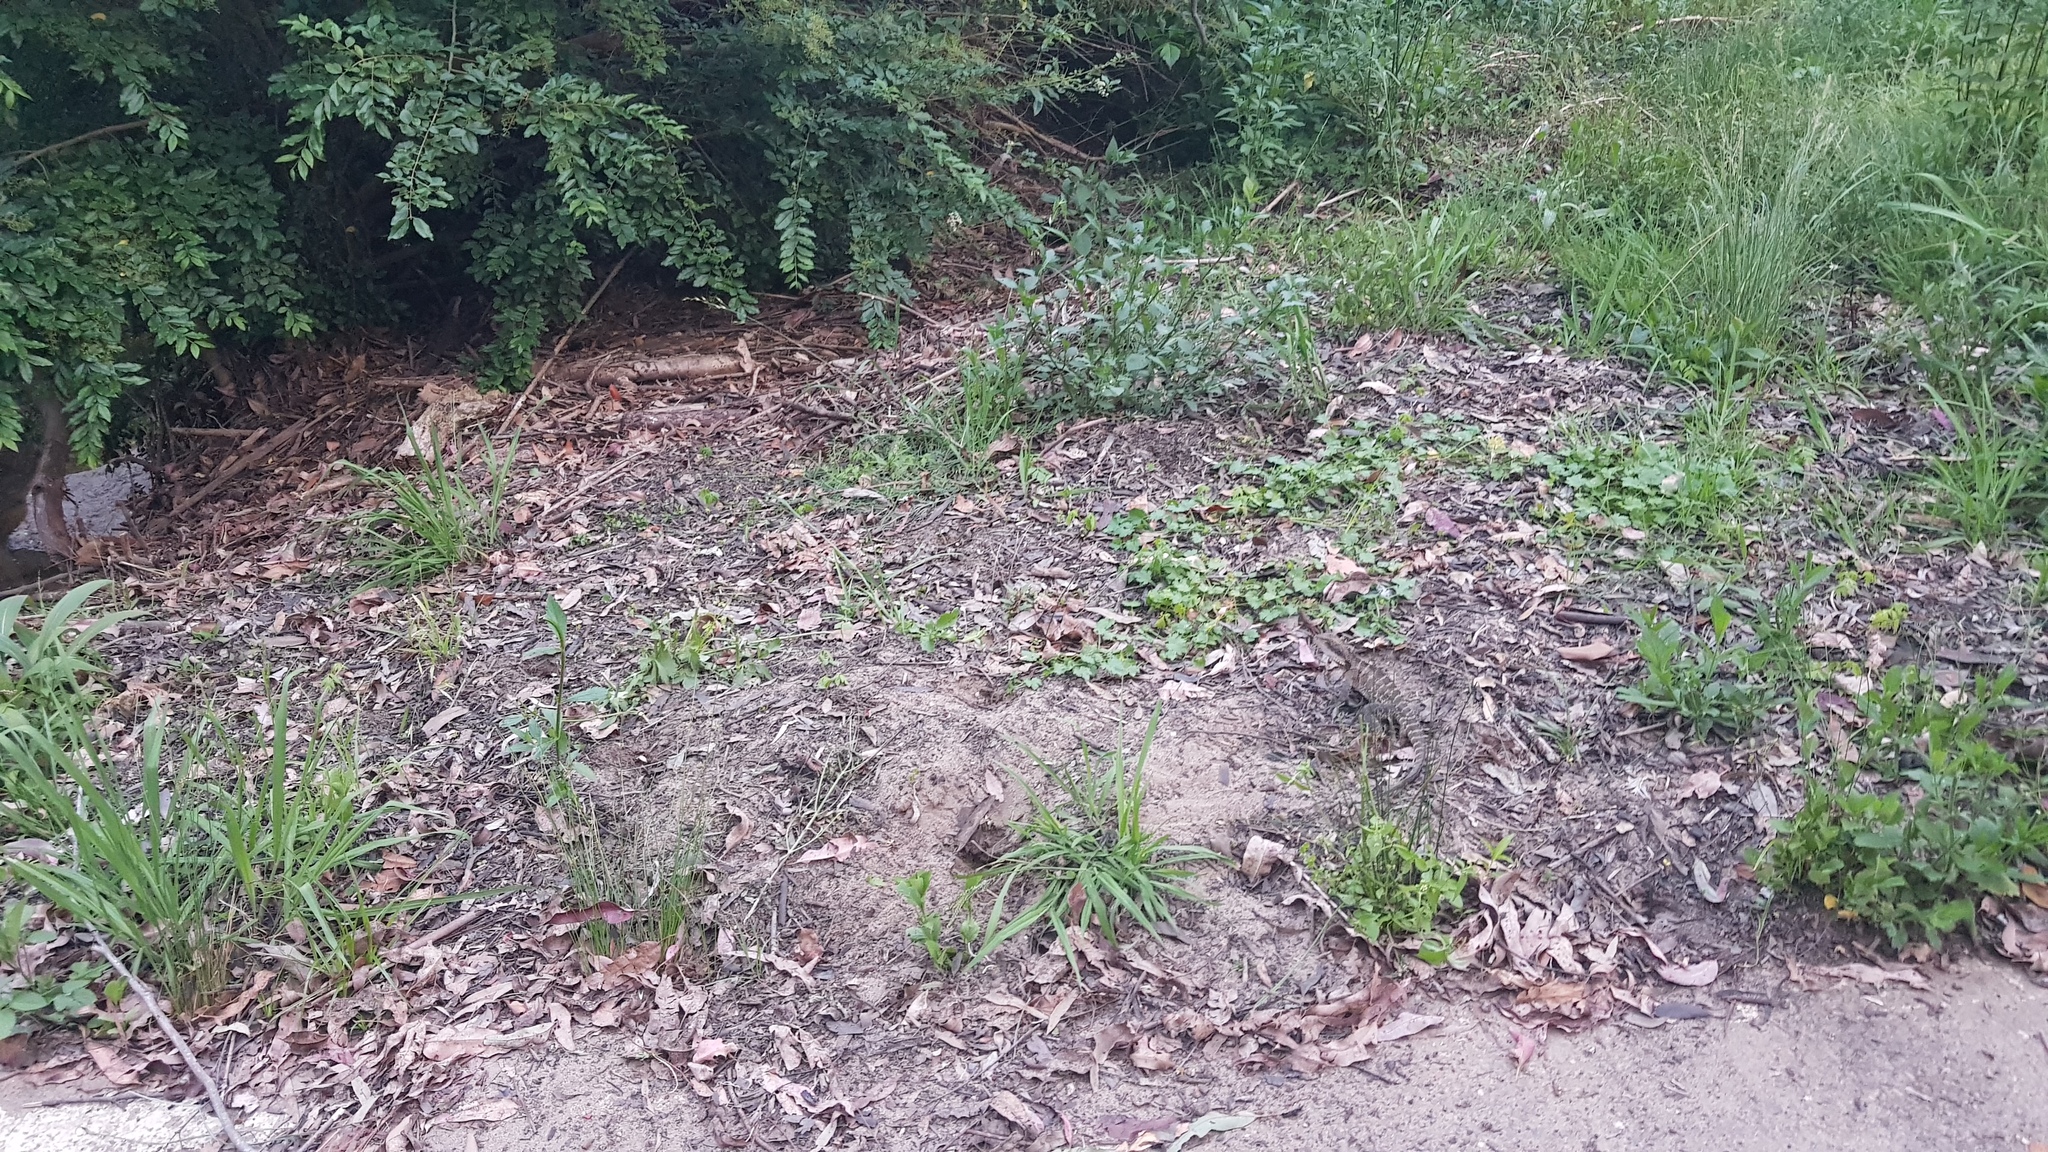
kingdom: Animalia
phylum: Chordata
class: Squamata
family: Agamidae
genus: Intellagama
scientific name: Intellagama lesueurii
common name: Eastern water dragon
